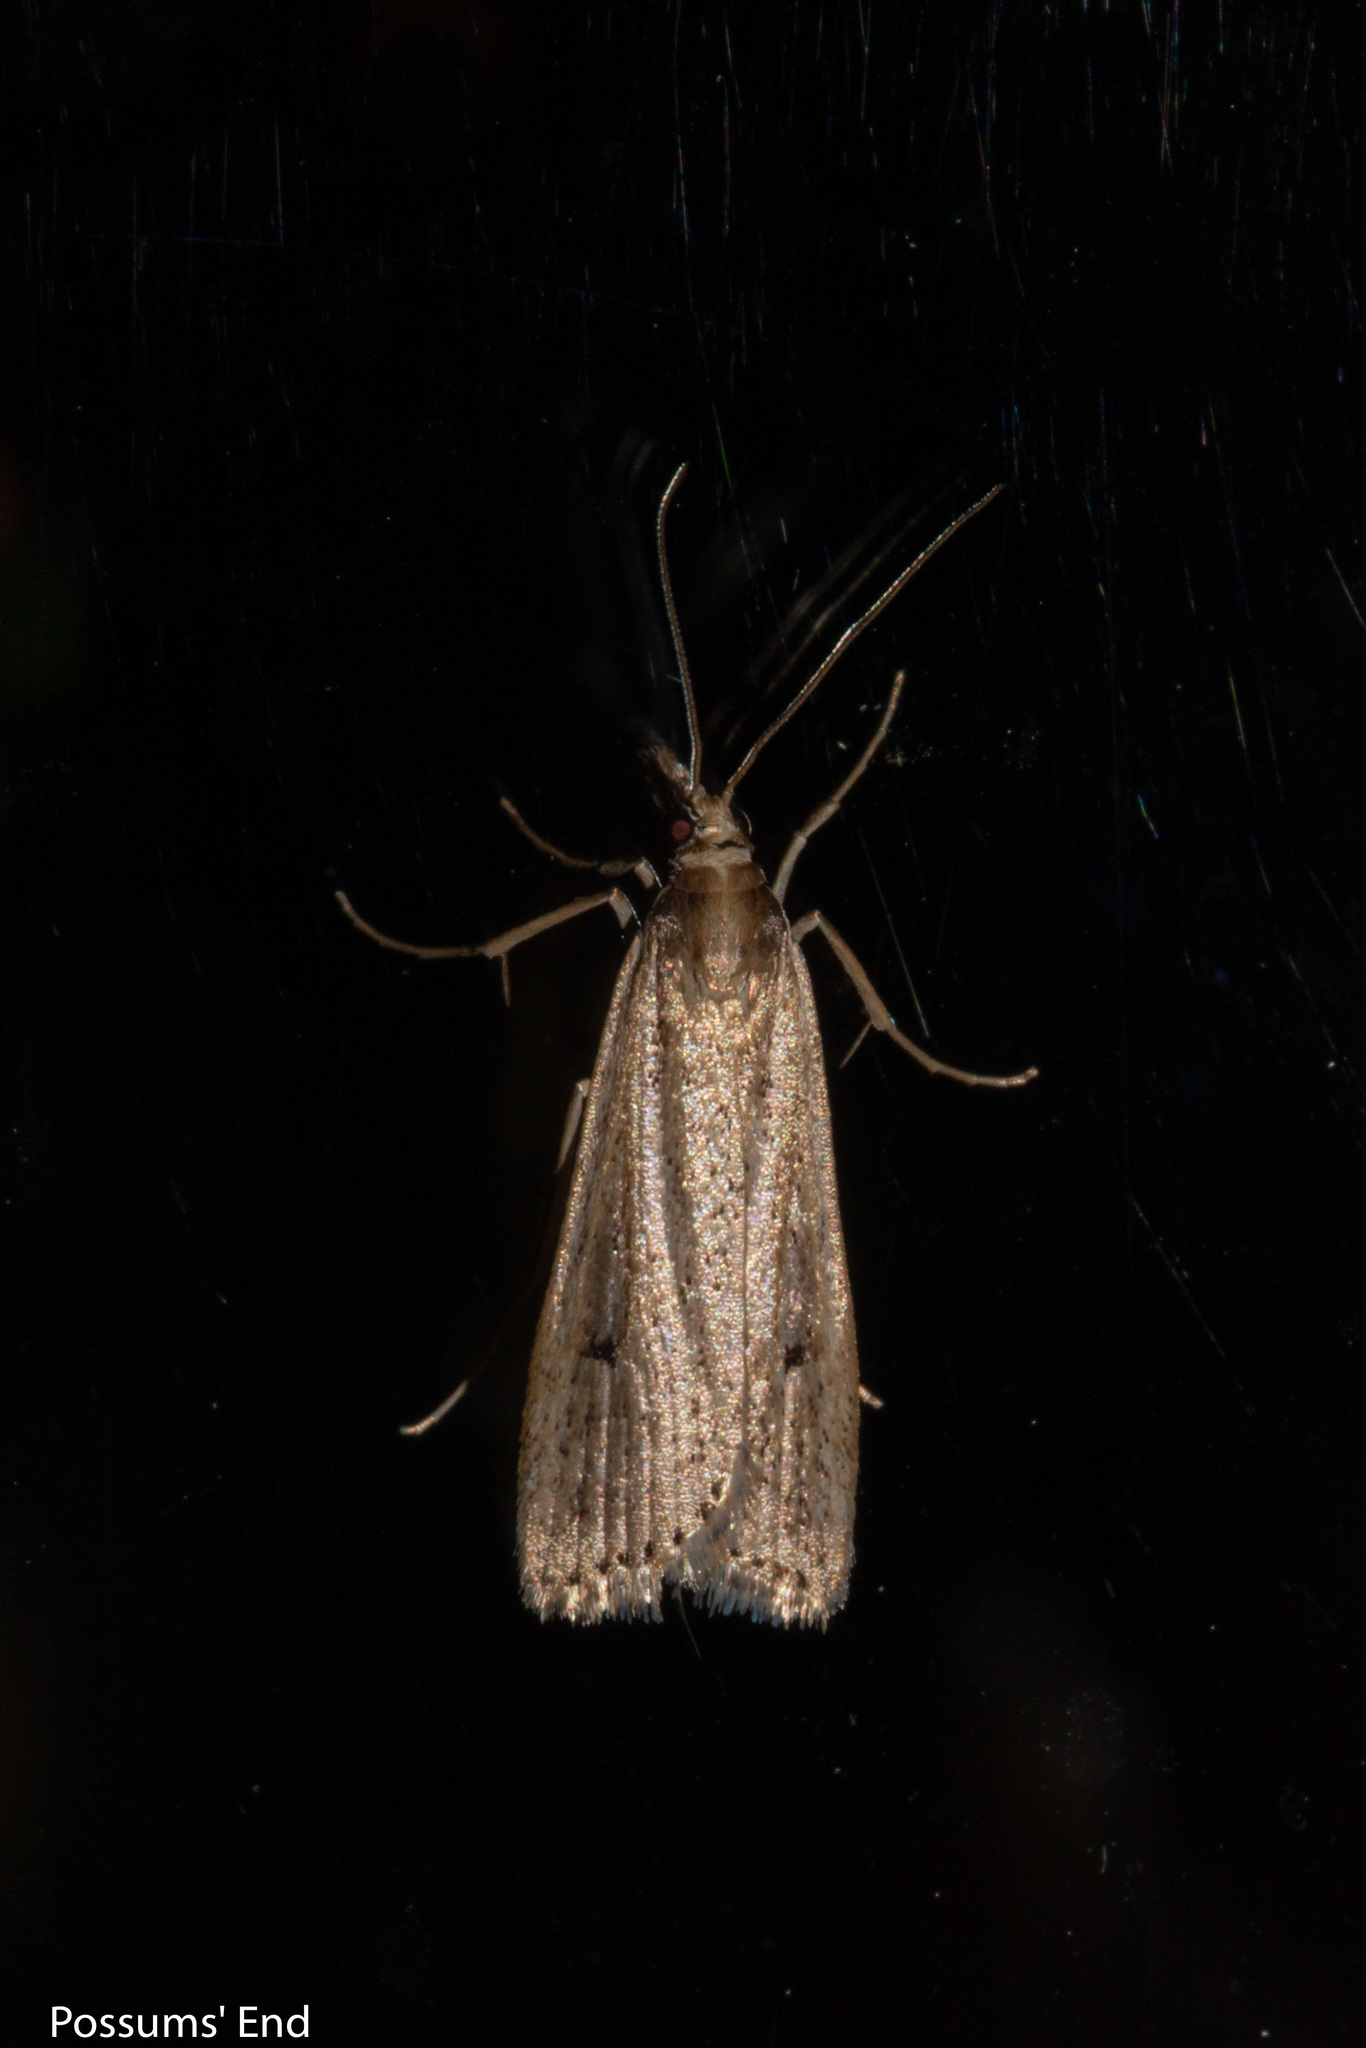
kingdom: Animalia
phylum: Arthropoda
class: Insecta
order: Lepidoptera
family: Crambidae
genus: Eudonia
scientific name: Eudonia sabulosella
